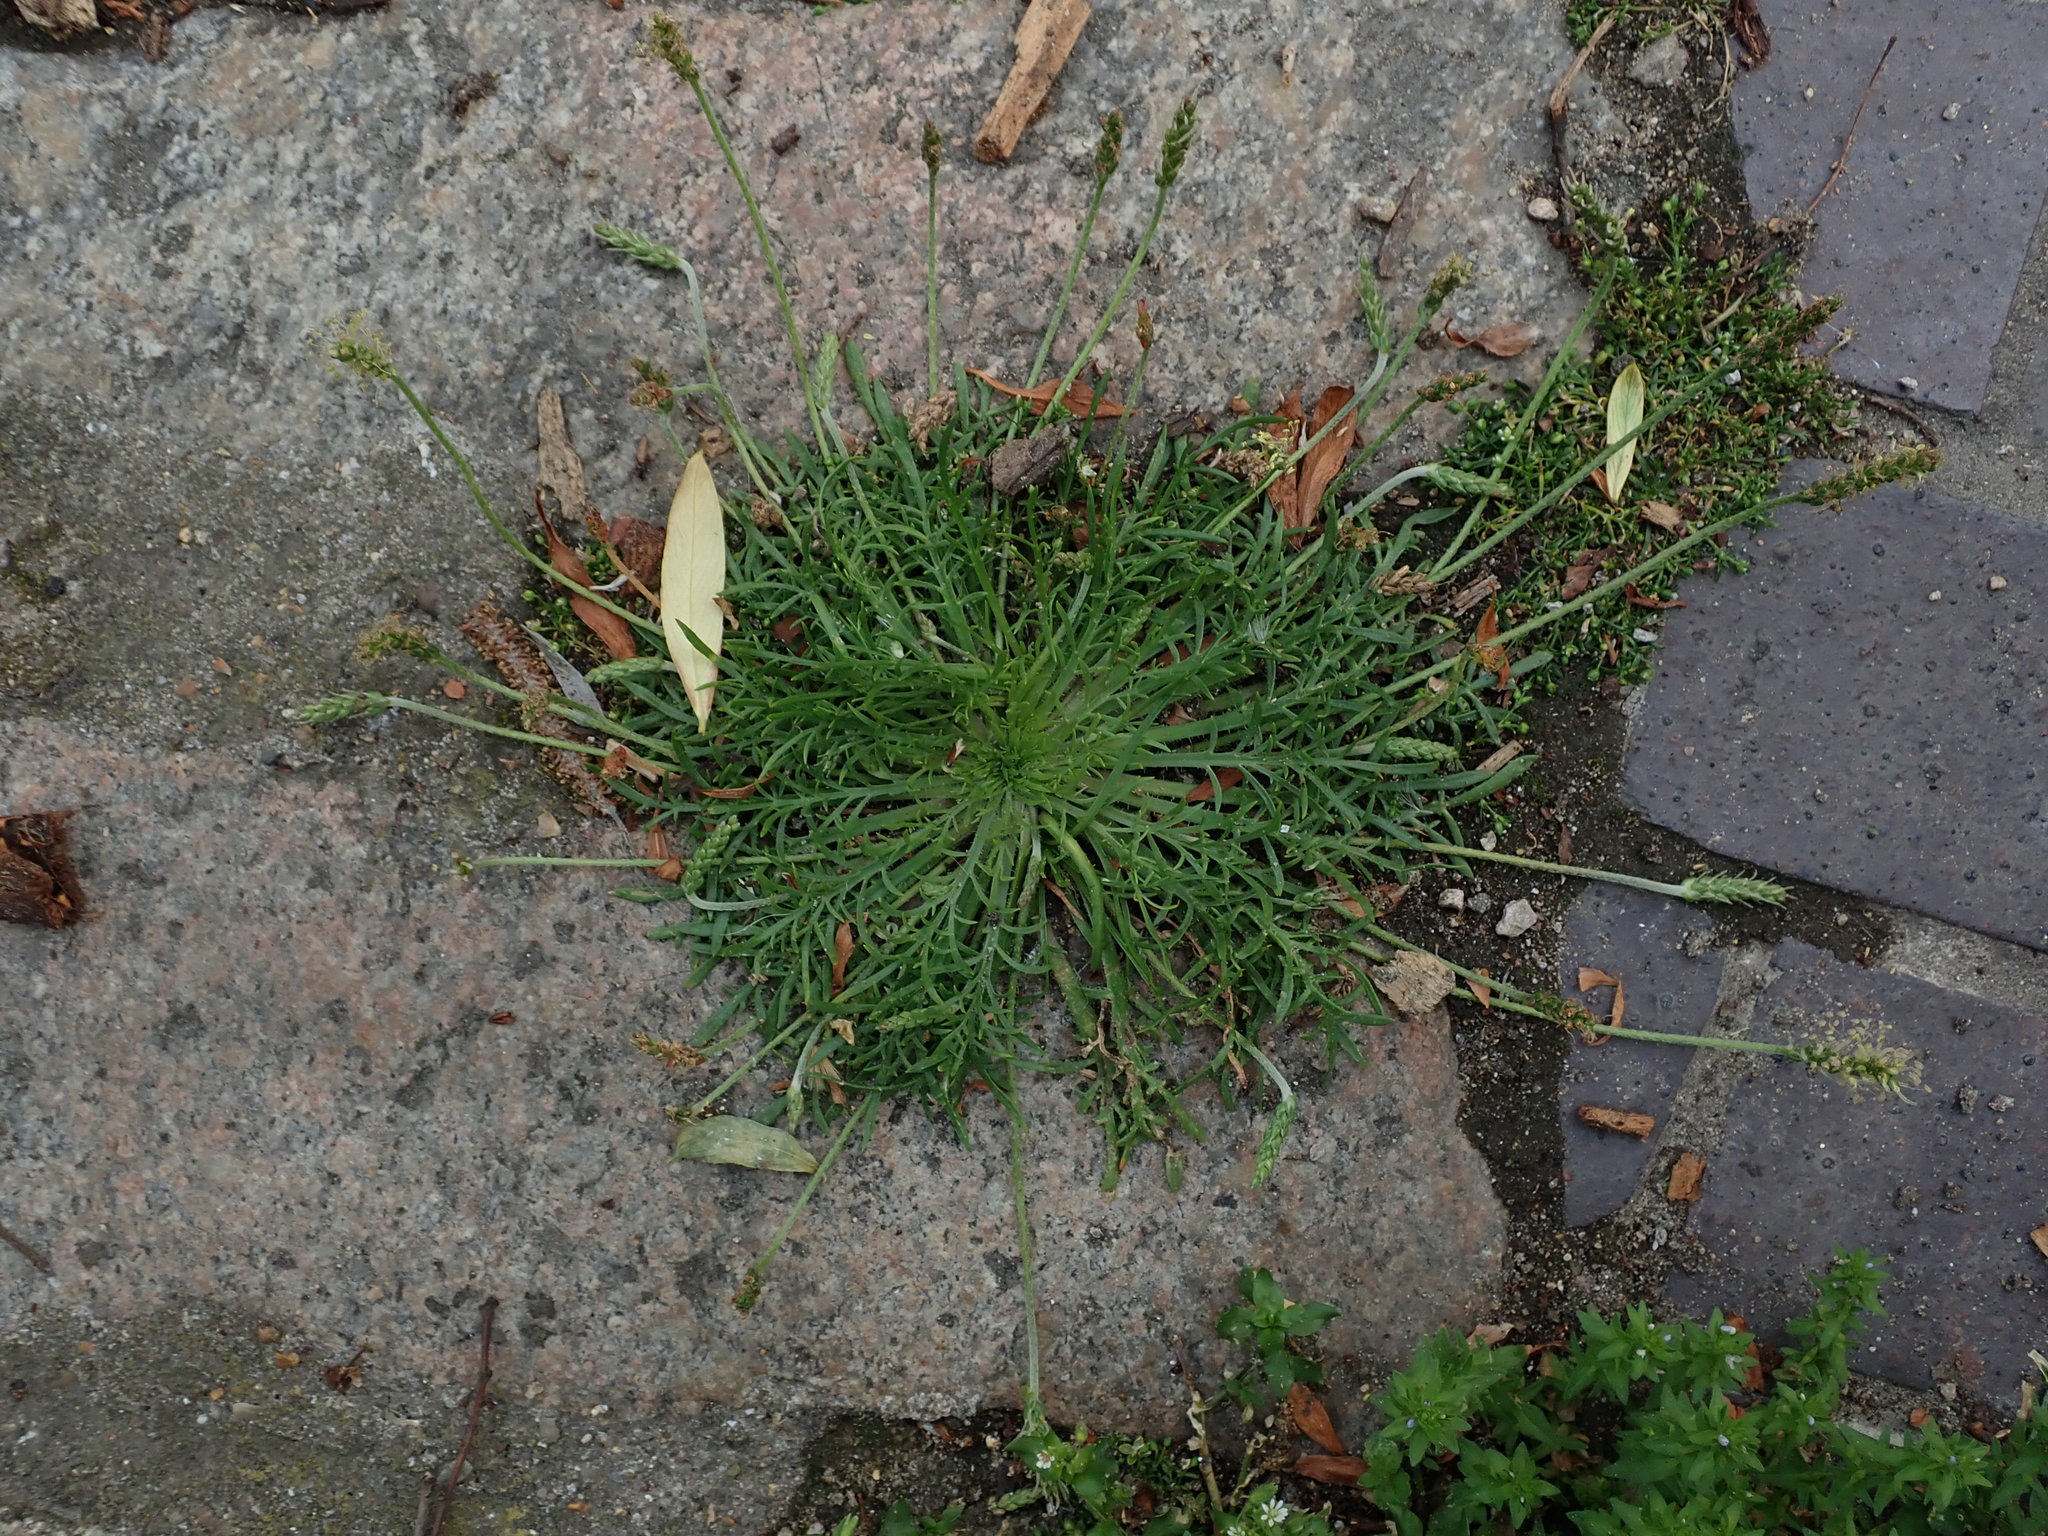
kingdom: Plantae
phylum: Tracheophyta
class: Magnoliopsida
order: Lamiales
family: Plantaginaceae
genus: Plantago
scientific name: Plantago coronopus
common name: Buck's-horn plantain
